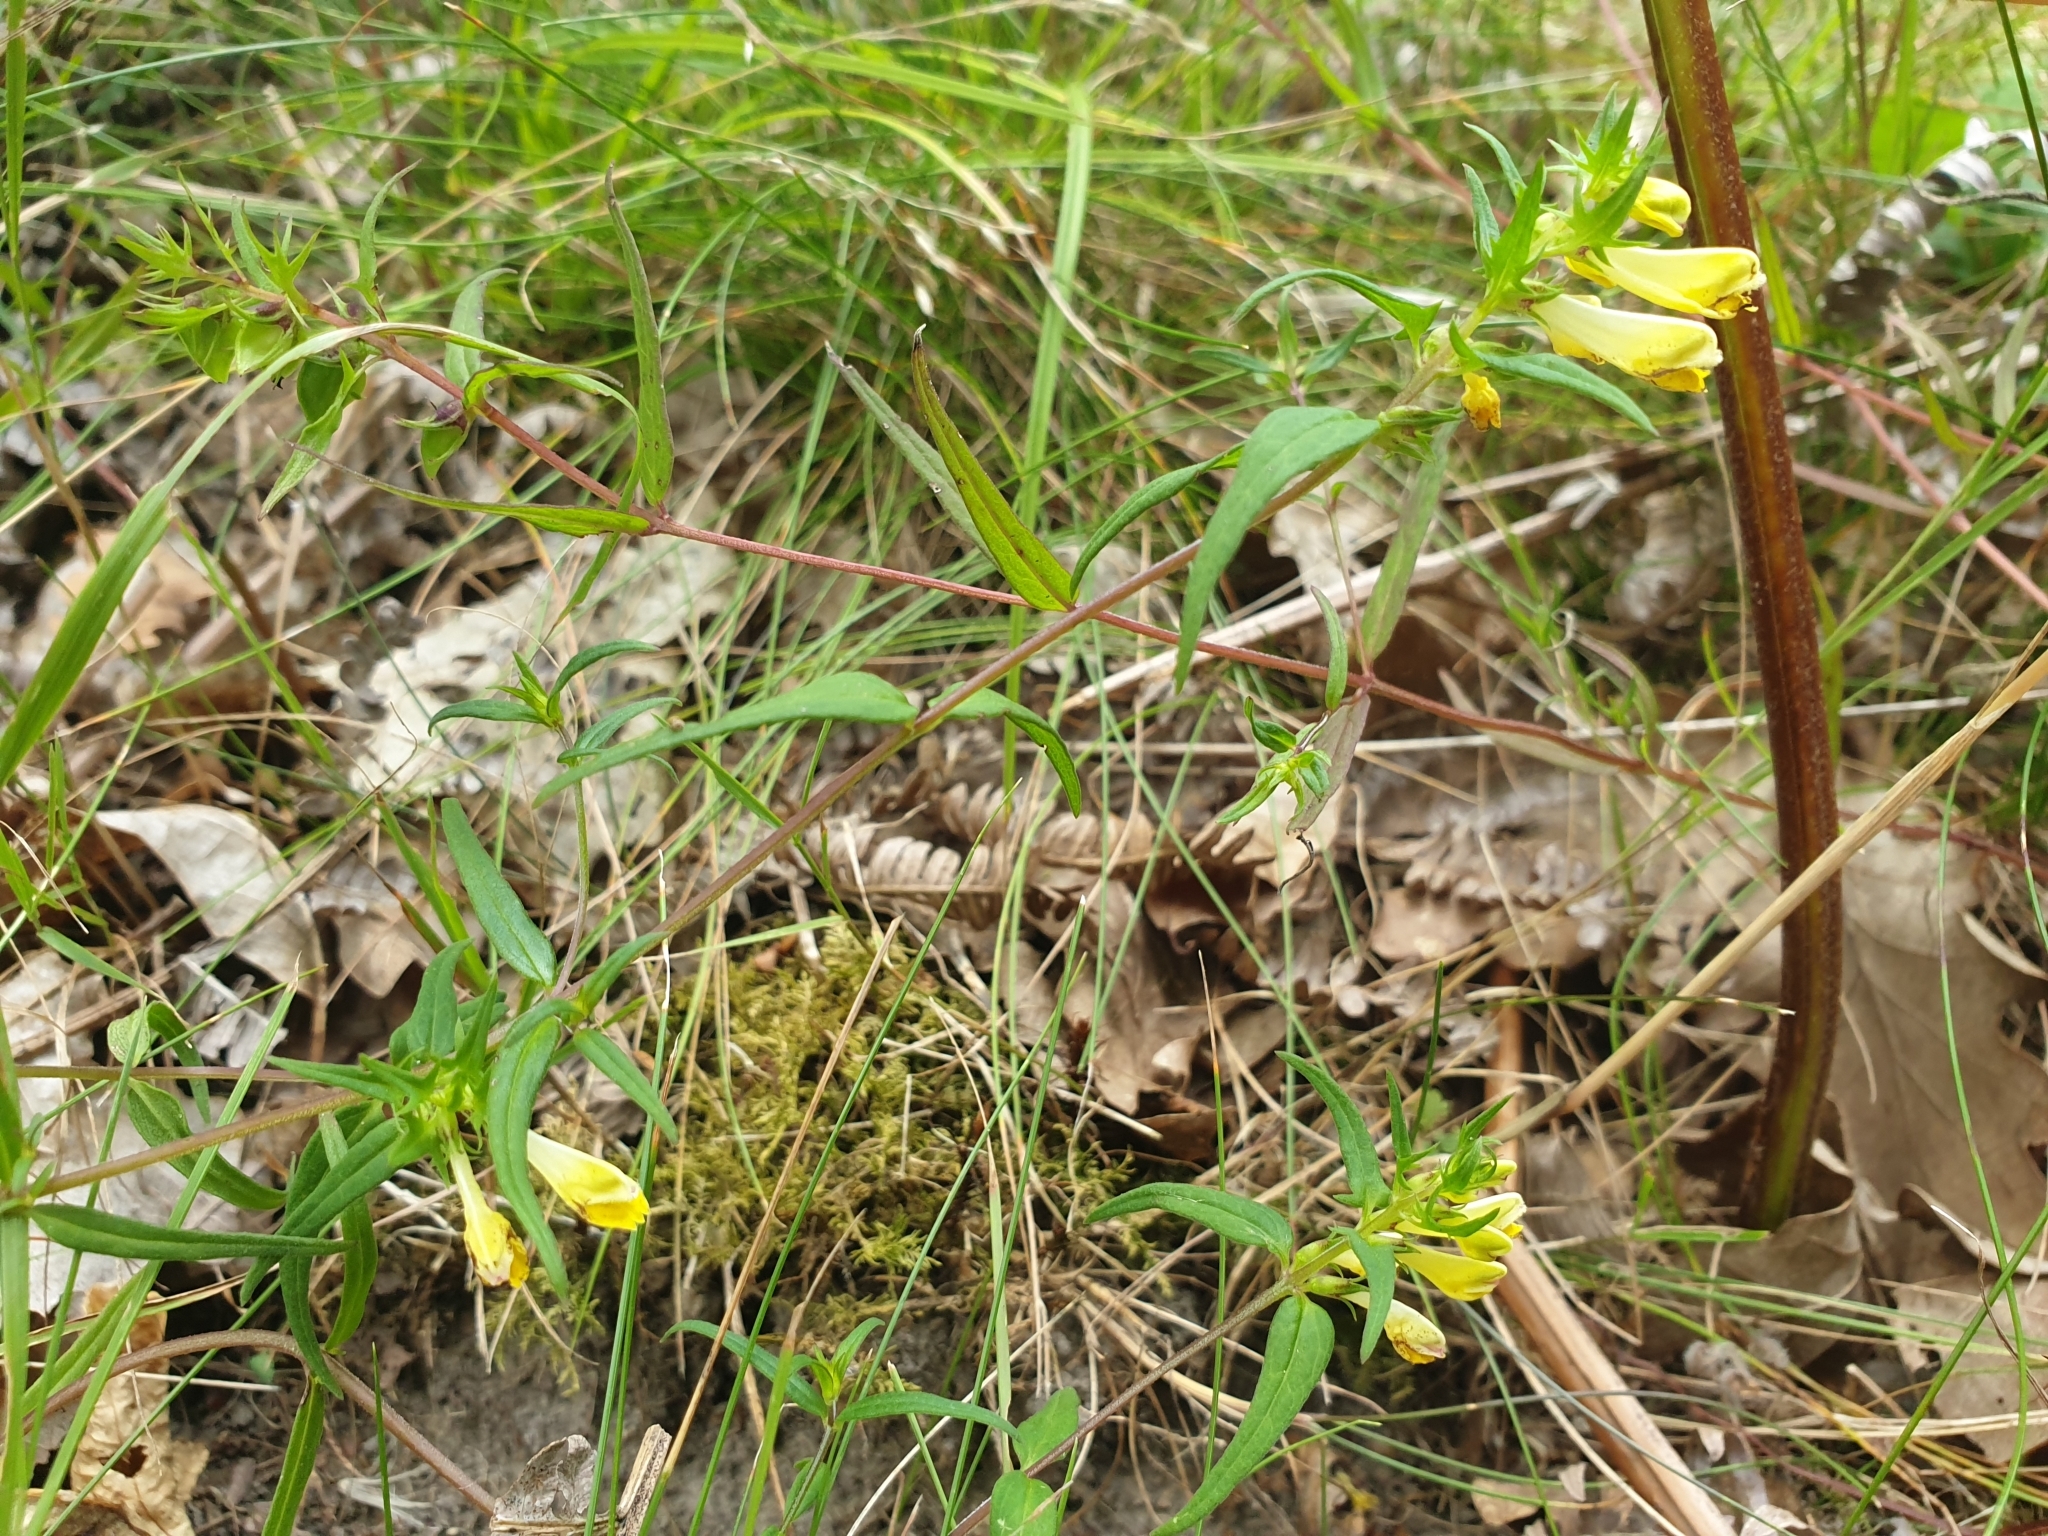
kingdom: Plantae
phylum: Tracheophyta
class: Magnoliopsida
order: Lamiales
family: Orobanchaceae
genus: Melampyrum
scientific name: Melampyrum pratense
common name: Common cow-wheat
